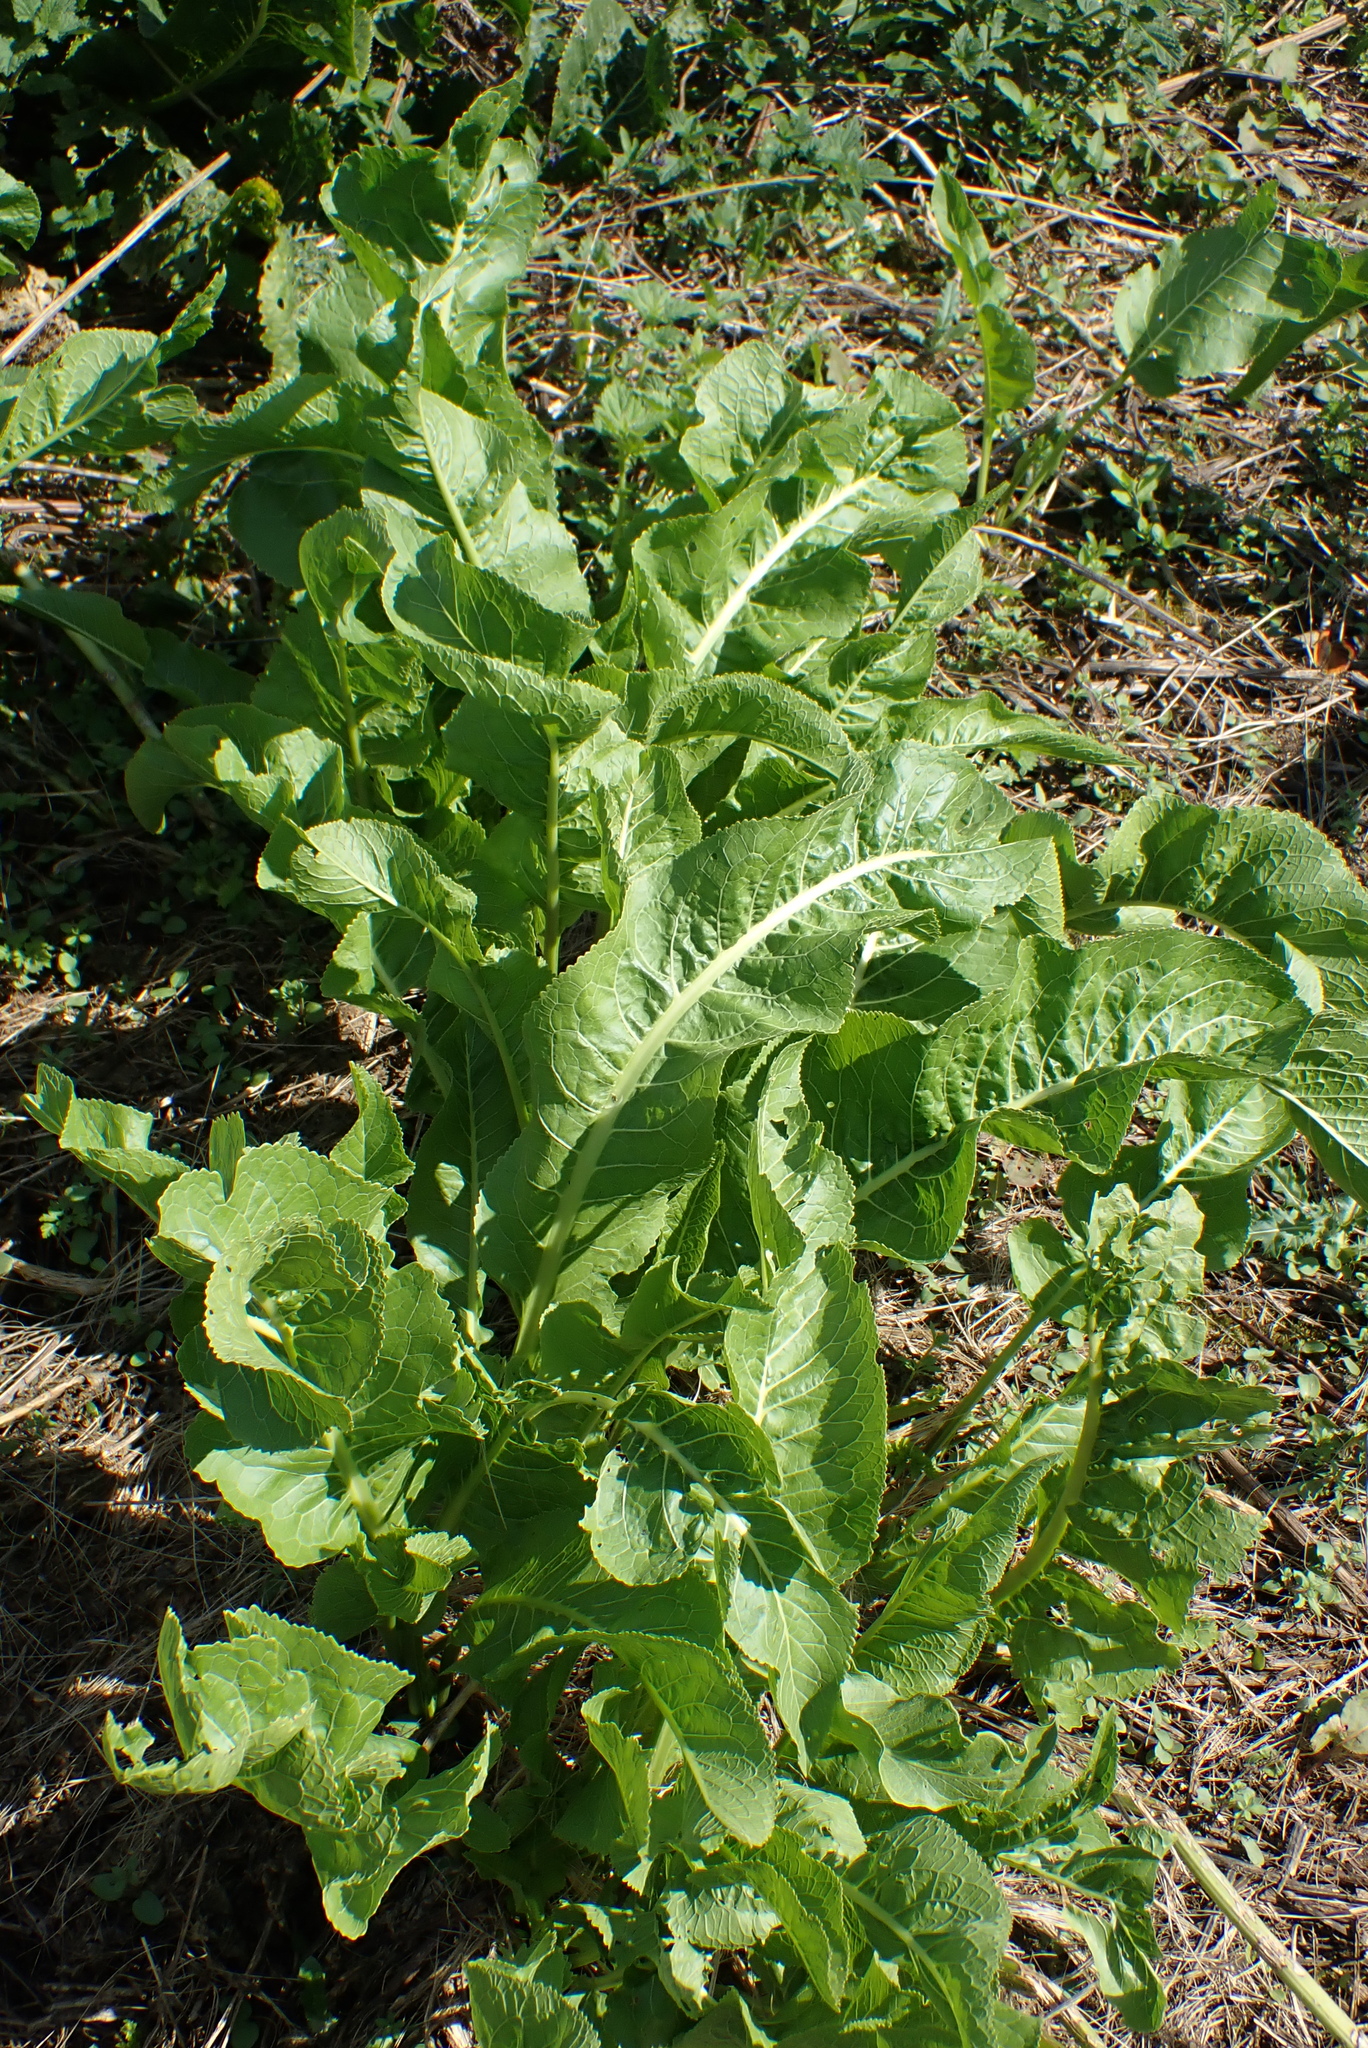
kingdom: Plantae
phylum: Tracheophyta
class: Magnoliopsida
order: Brassicales
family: Brassicaceae
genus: Armoracia
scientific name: Armoracia rusticana
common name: Horseradish
